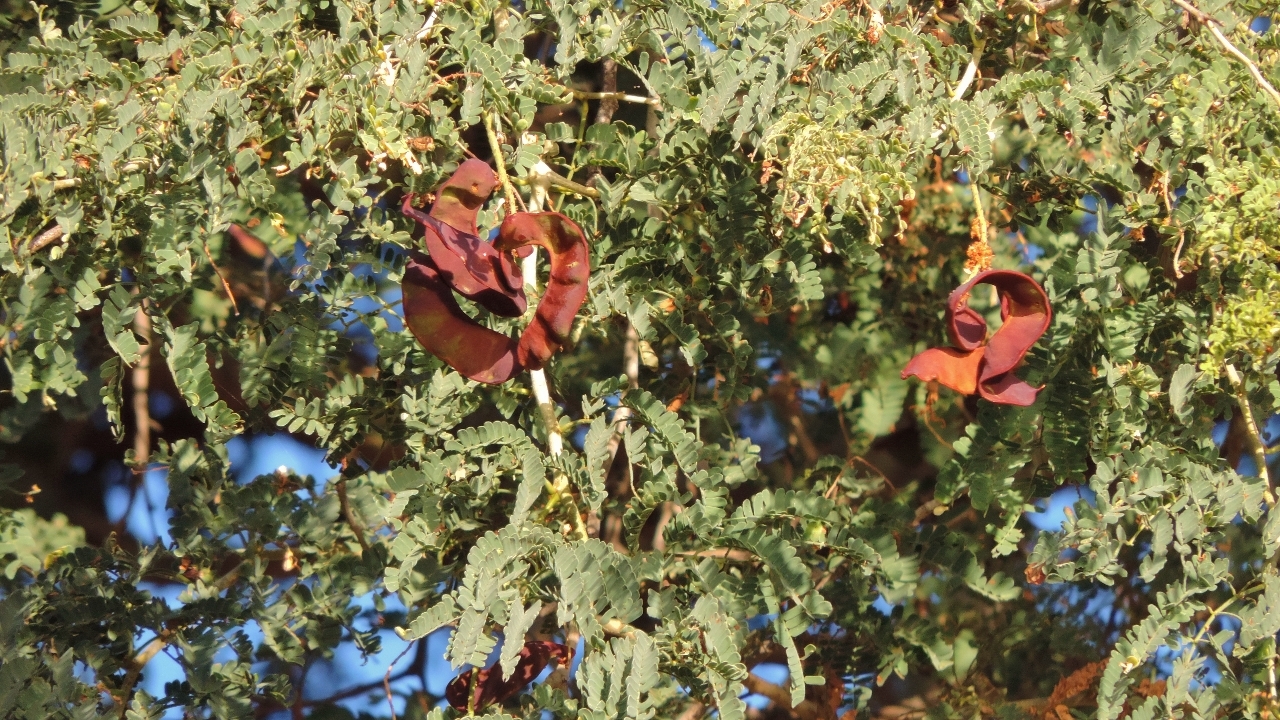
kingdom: Plantae
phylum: Tracheophyta
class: Magnoliopsida
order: Fabales
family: Fabaceae
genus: Faidherbia
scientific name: Faidherbia albida
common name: Anatree
